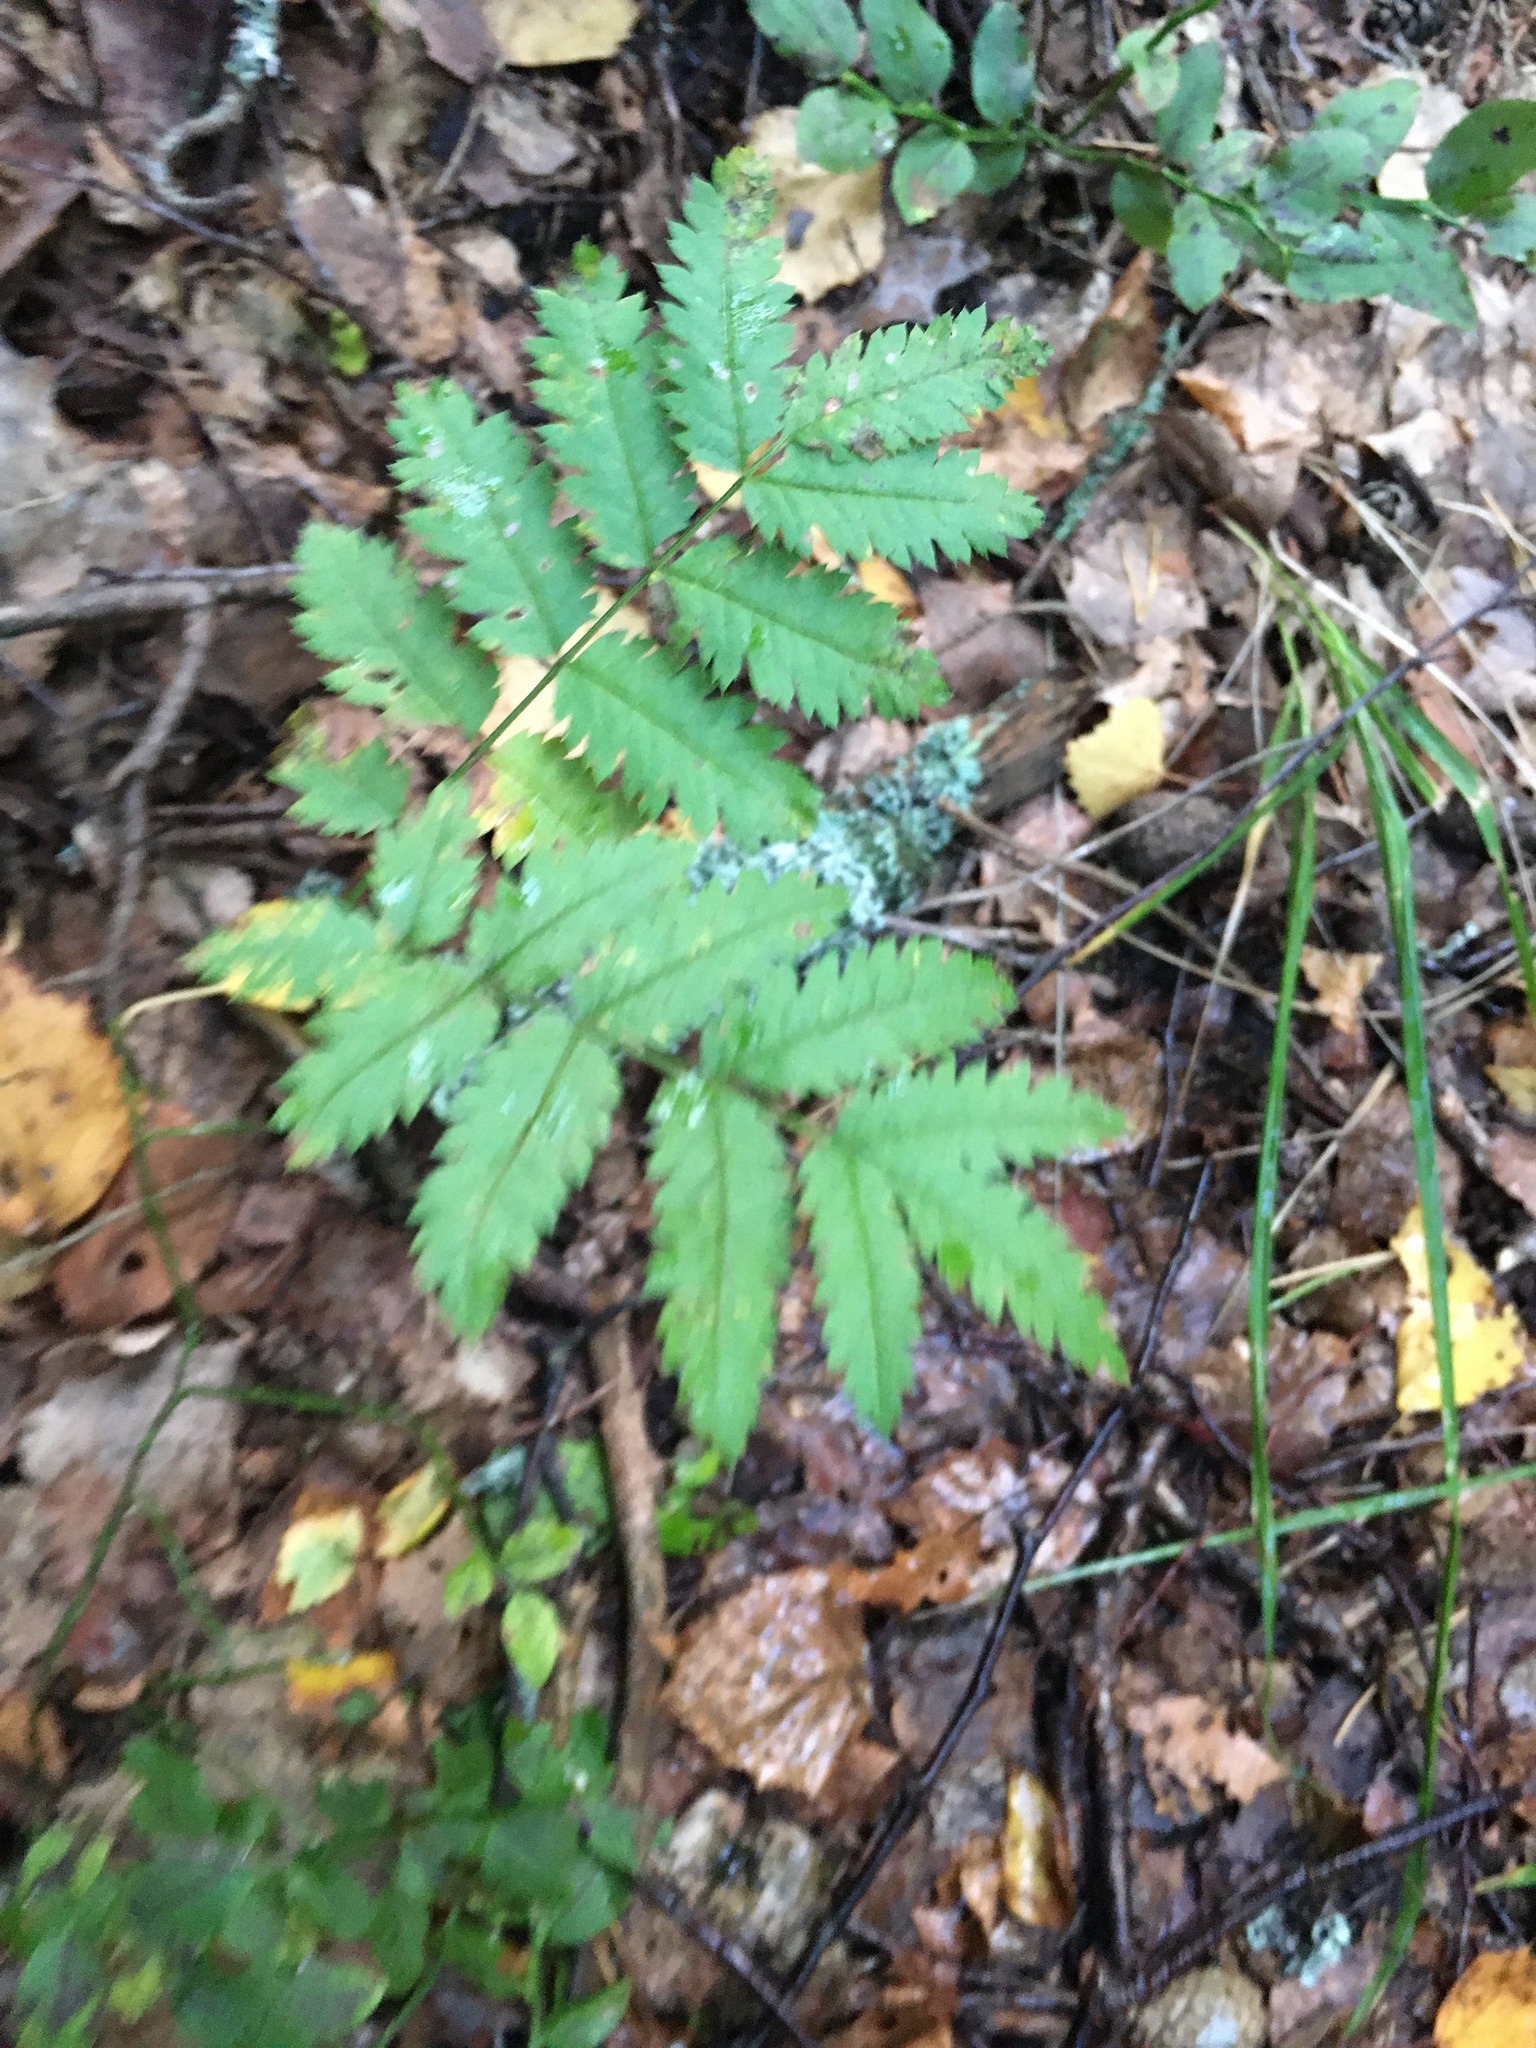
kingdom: Plantae
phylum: Tracheophyta
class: Magnoliopsida
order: Rosales
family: Rosaceae
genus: Sorbus
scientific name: Sorbus aucuparia
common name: Rowan
